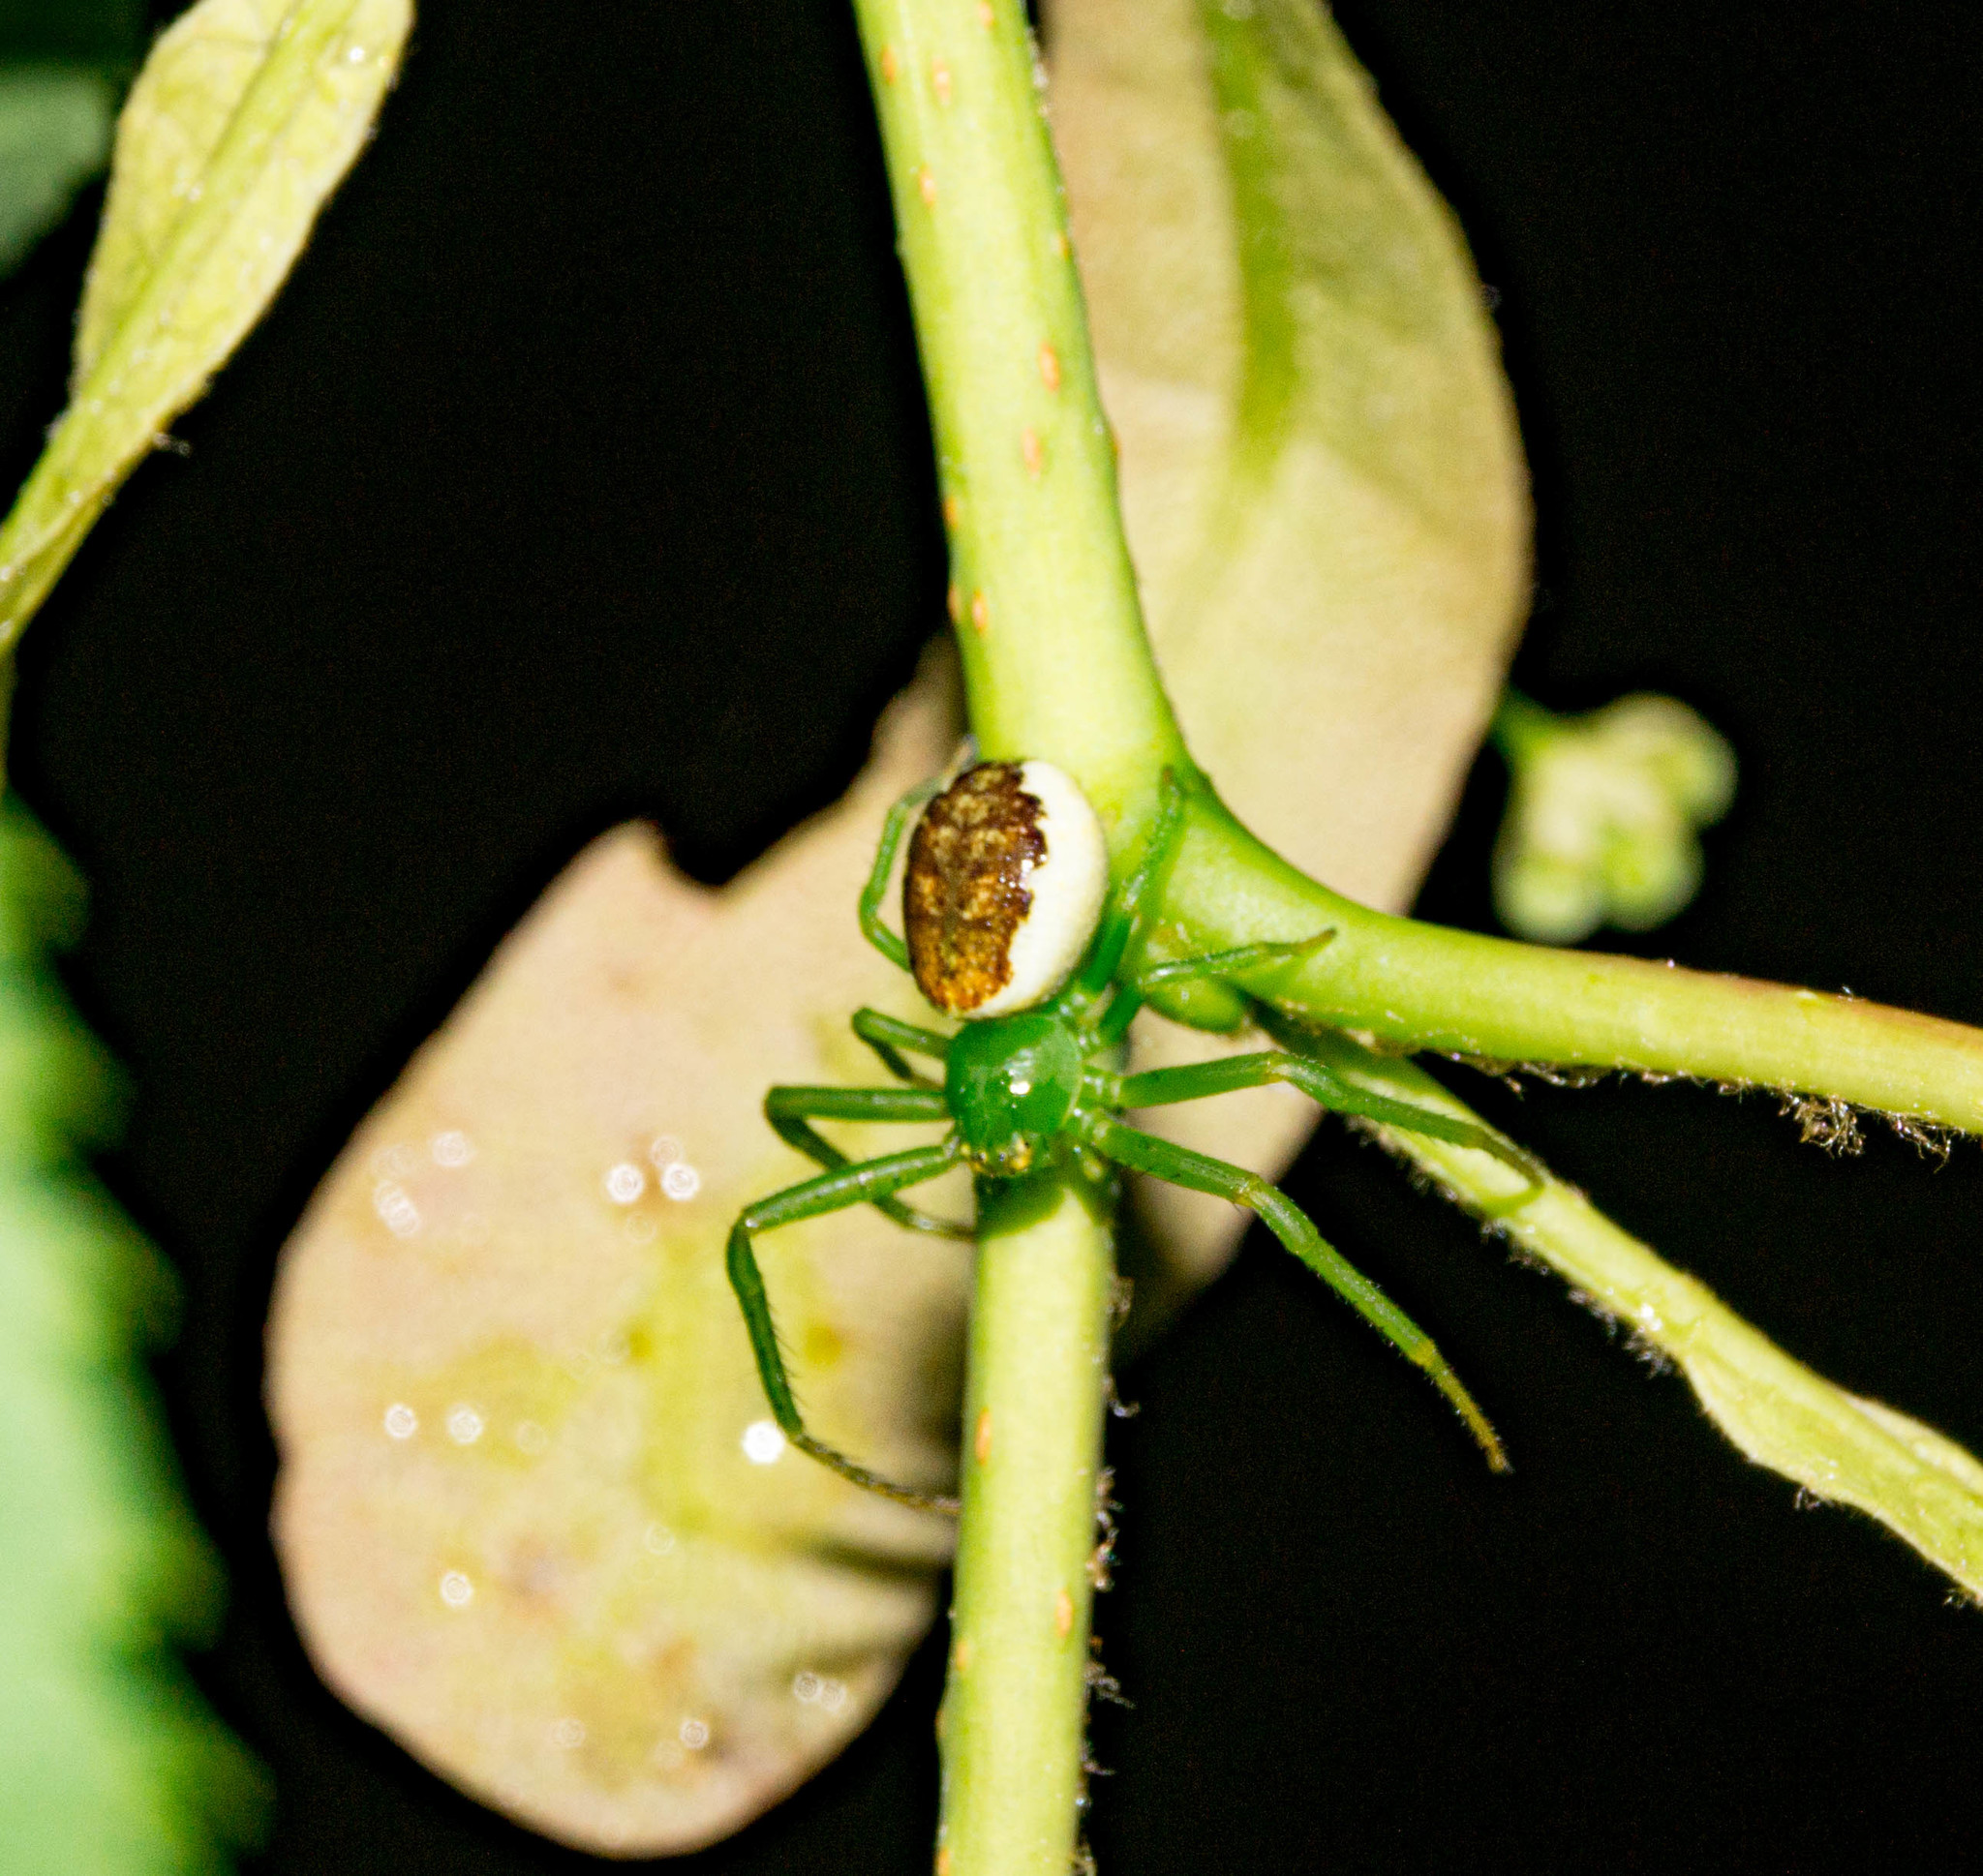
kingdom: Animalia
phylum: Arthropoda
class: Arachnida
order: Araneae
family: Thomisidae
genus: Diaea
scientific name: Diaea dorsata
